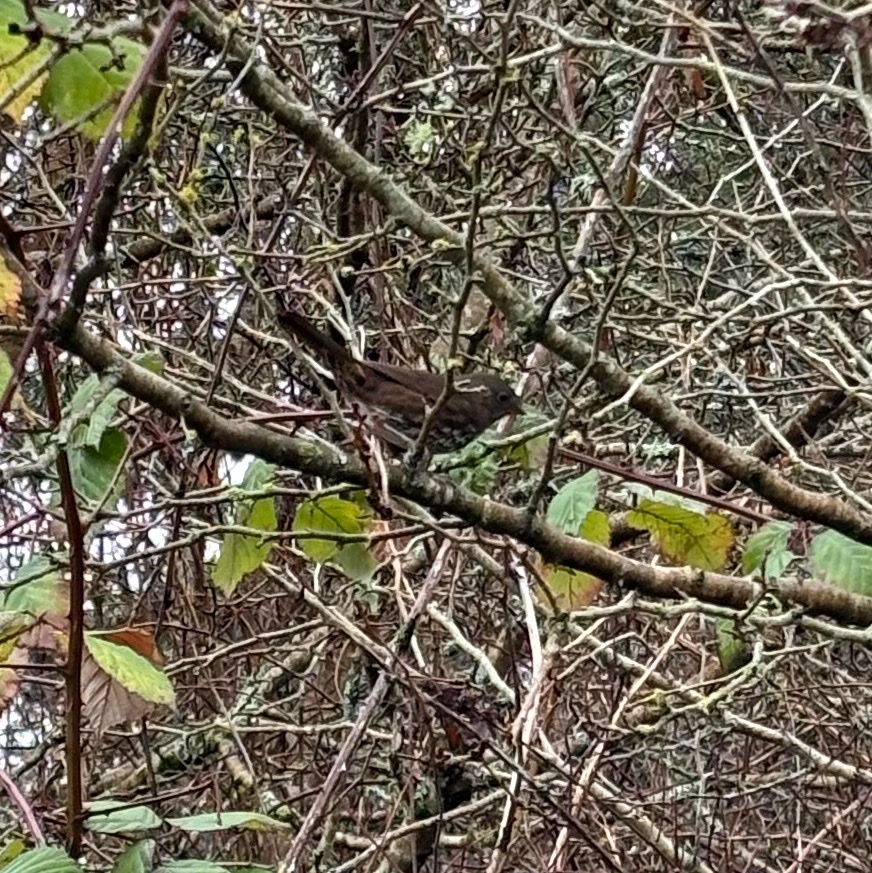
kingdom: Animalia
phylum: Chordata
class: Aves
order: Passeriformes
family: Passerellidae
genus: Passerella
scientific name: Passerella iliaca
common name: Fox sparrow
